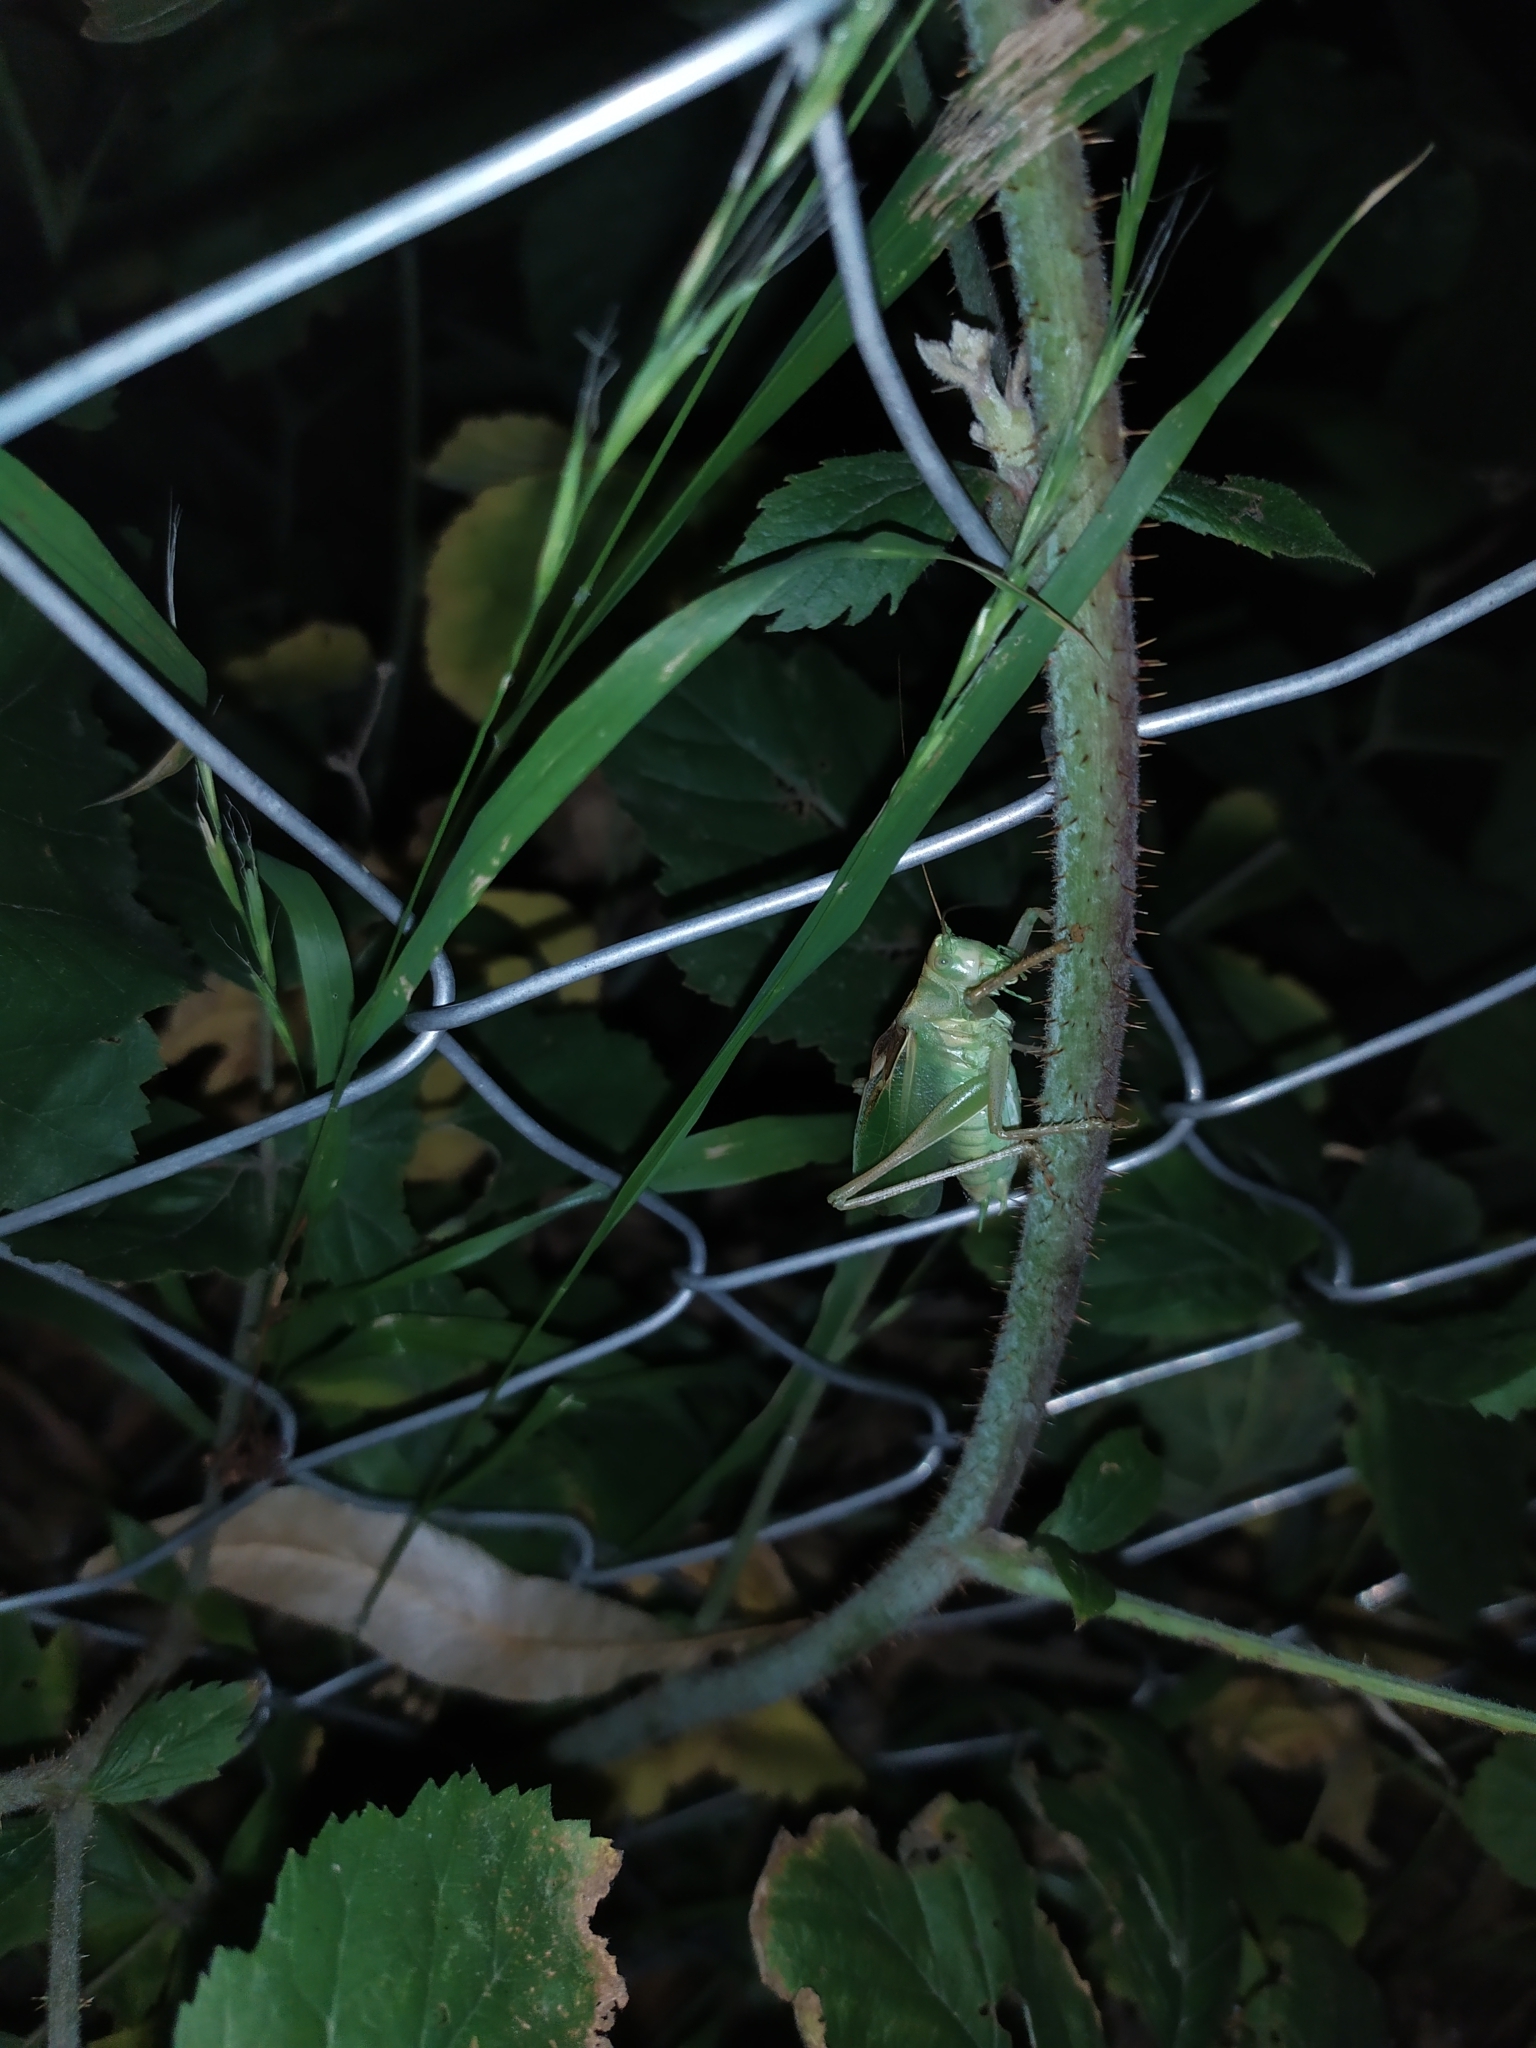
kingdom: Animalia
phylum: Arthropoda
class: Insecta
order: Orthoptera
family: Tettigoniidae
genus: Tettigonia
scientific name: Tettigonia cantans
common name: Upland green bush-cricket
